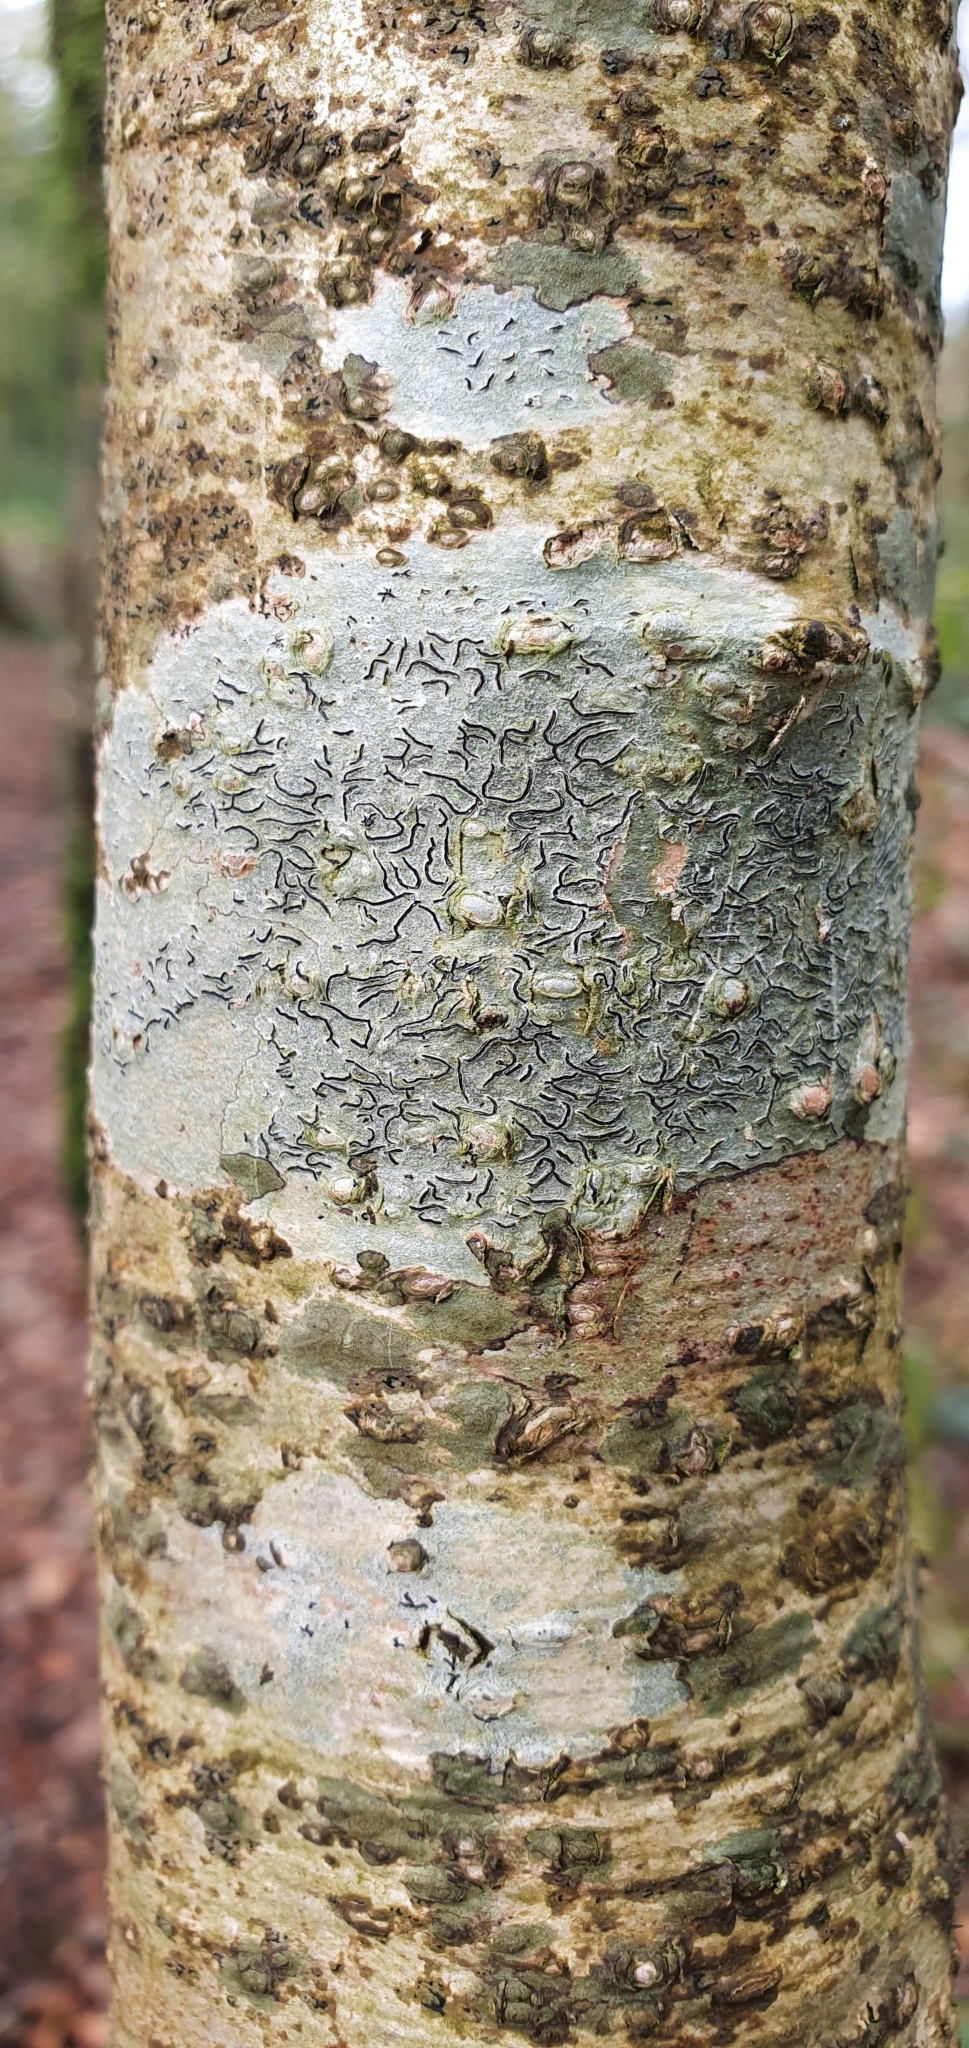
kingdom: Fungi
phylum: Ascomycota
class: Lecanoromycetes
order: Ostropales
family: Graphidaceae
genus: Graphis
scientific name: Graphis scripta
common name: Script lichen
